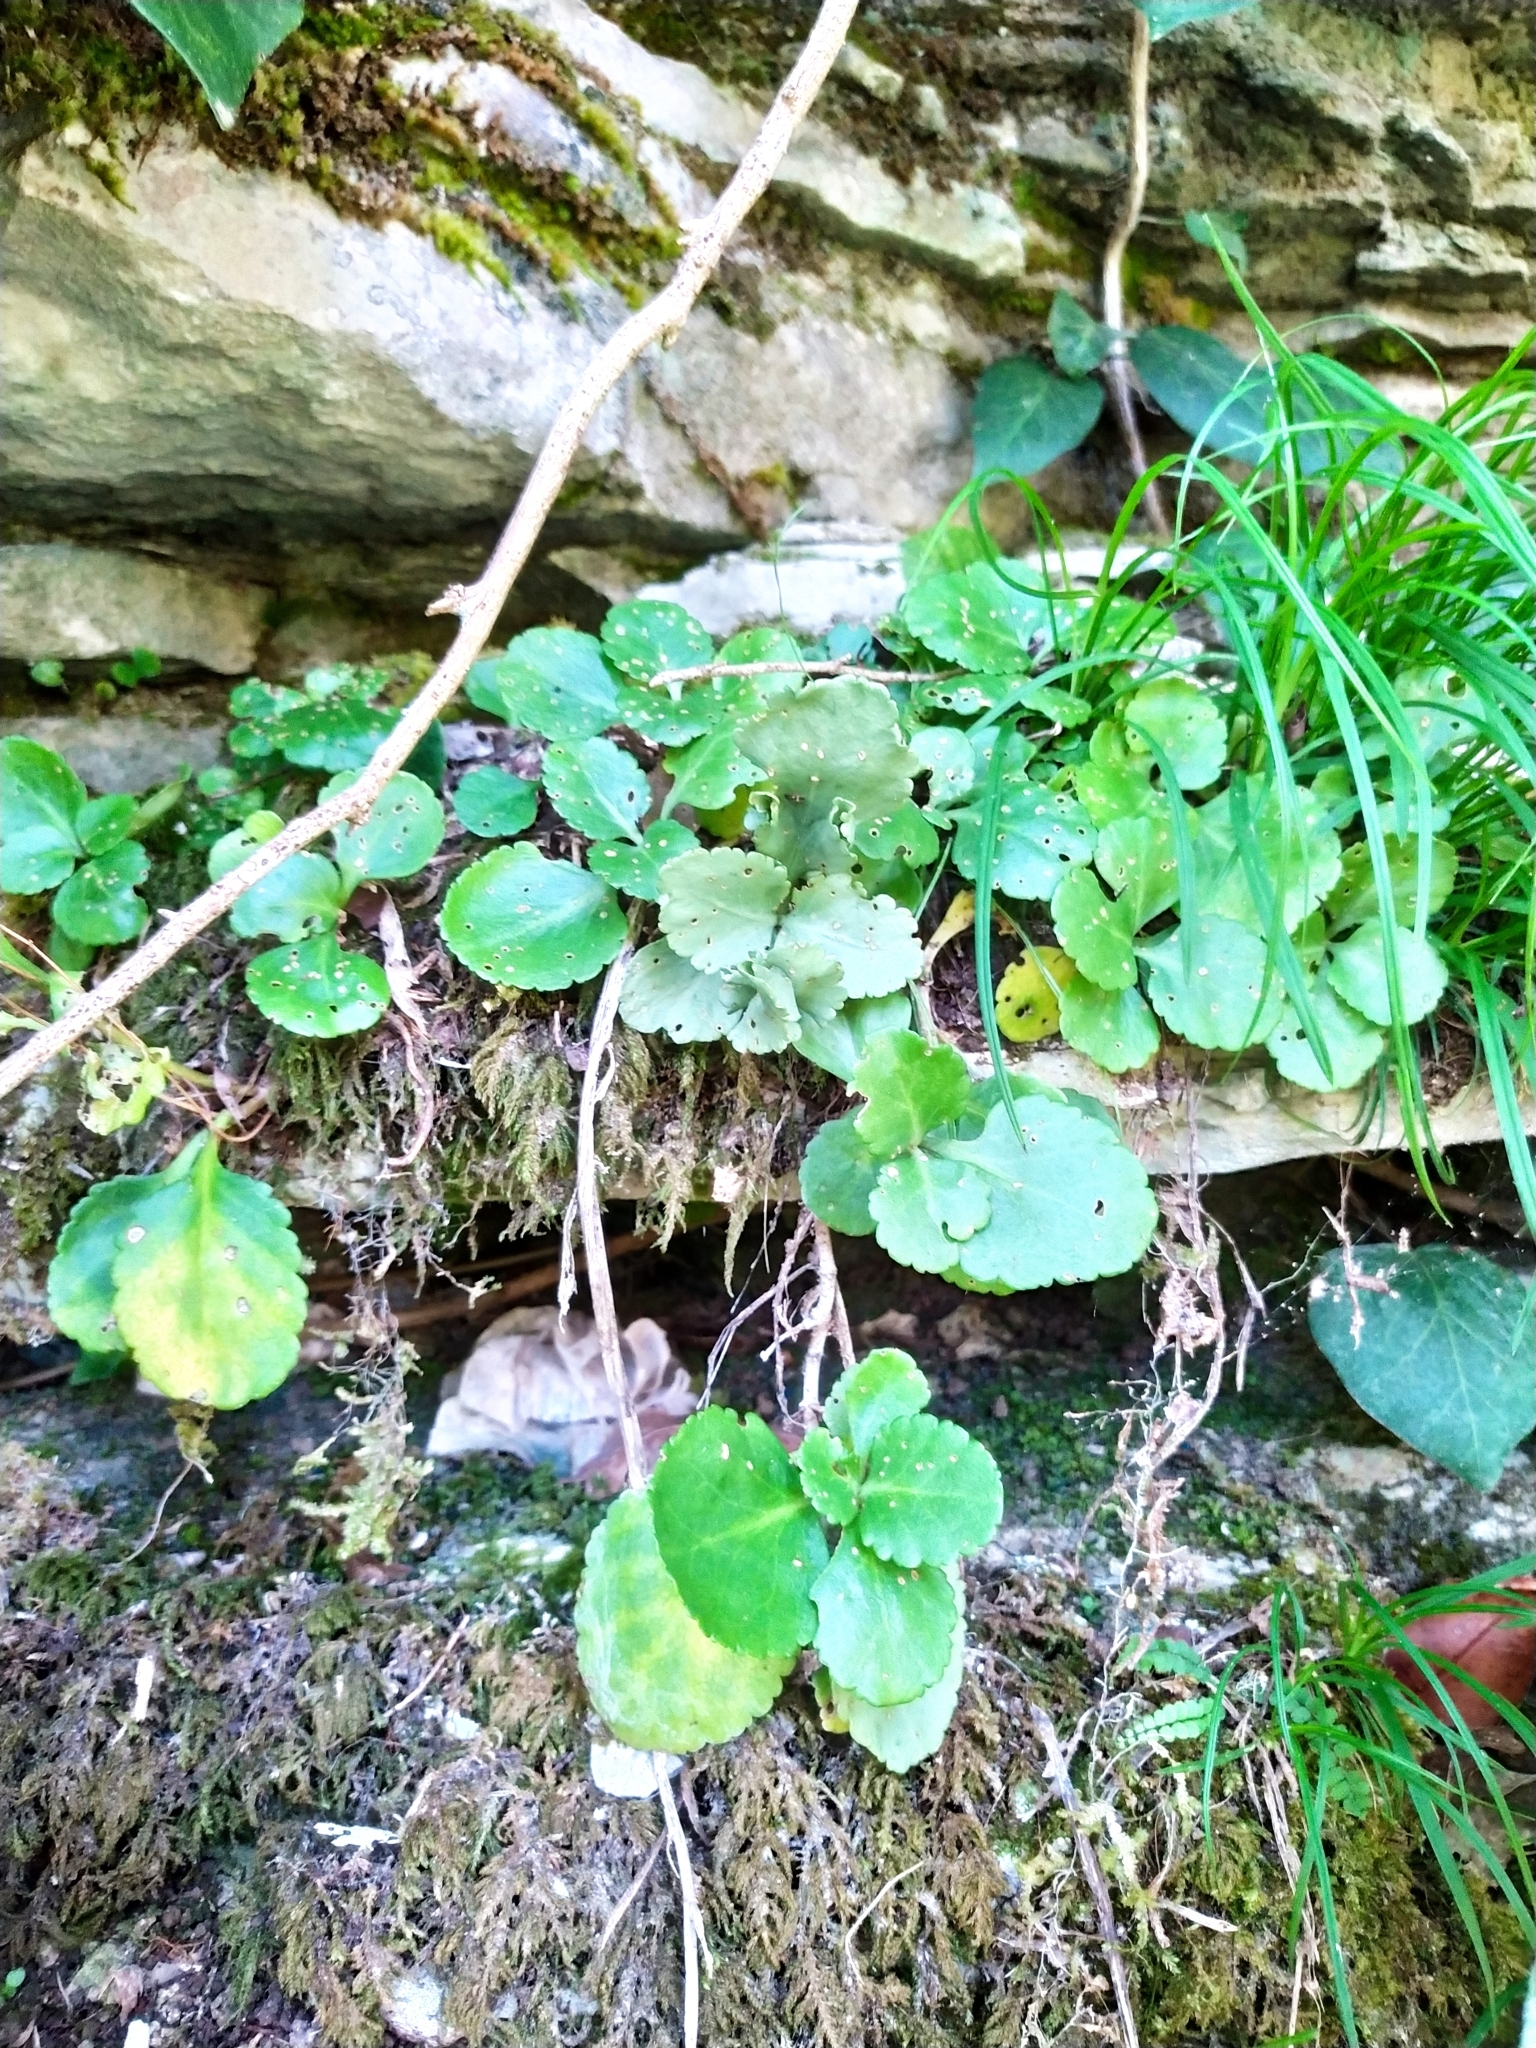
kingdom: Plantae
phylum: Tracheophyta
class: Magnoliopsida
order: Saxifragales
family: Crassulaceae
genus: Umbilicus
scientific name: Umbilicus oppositifolius
